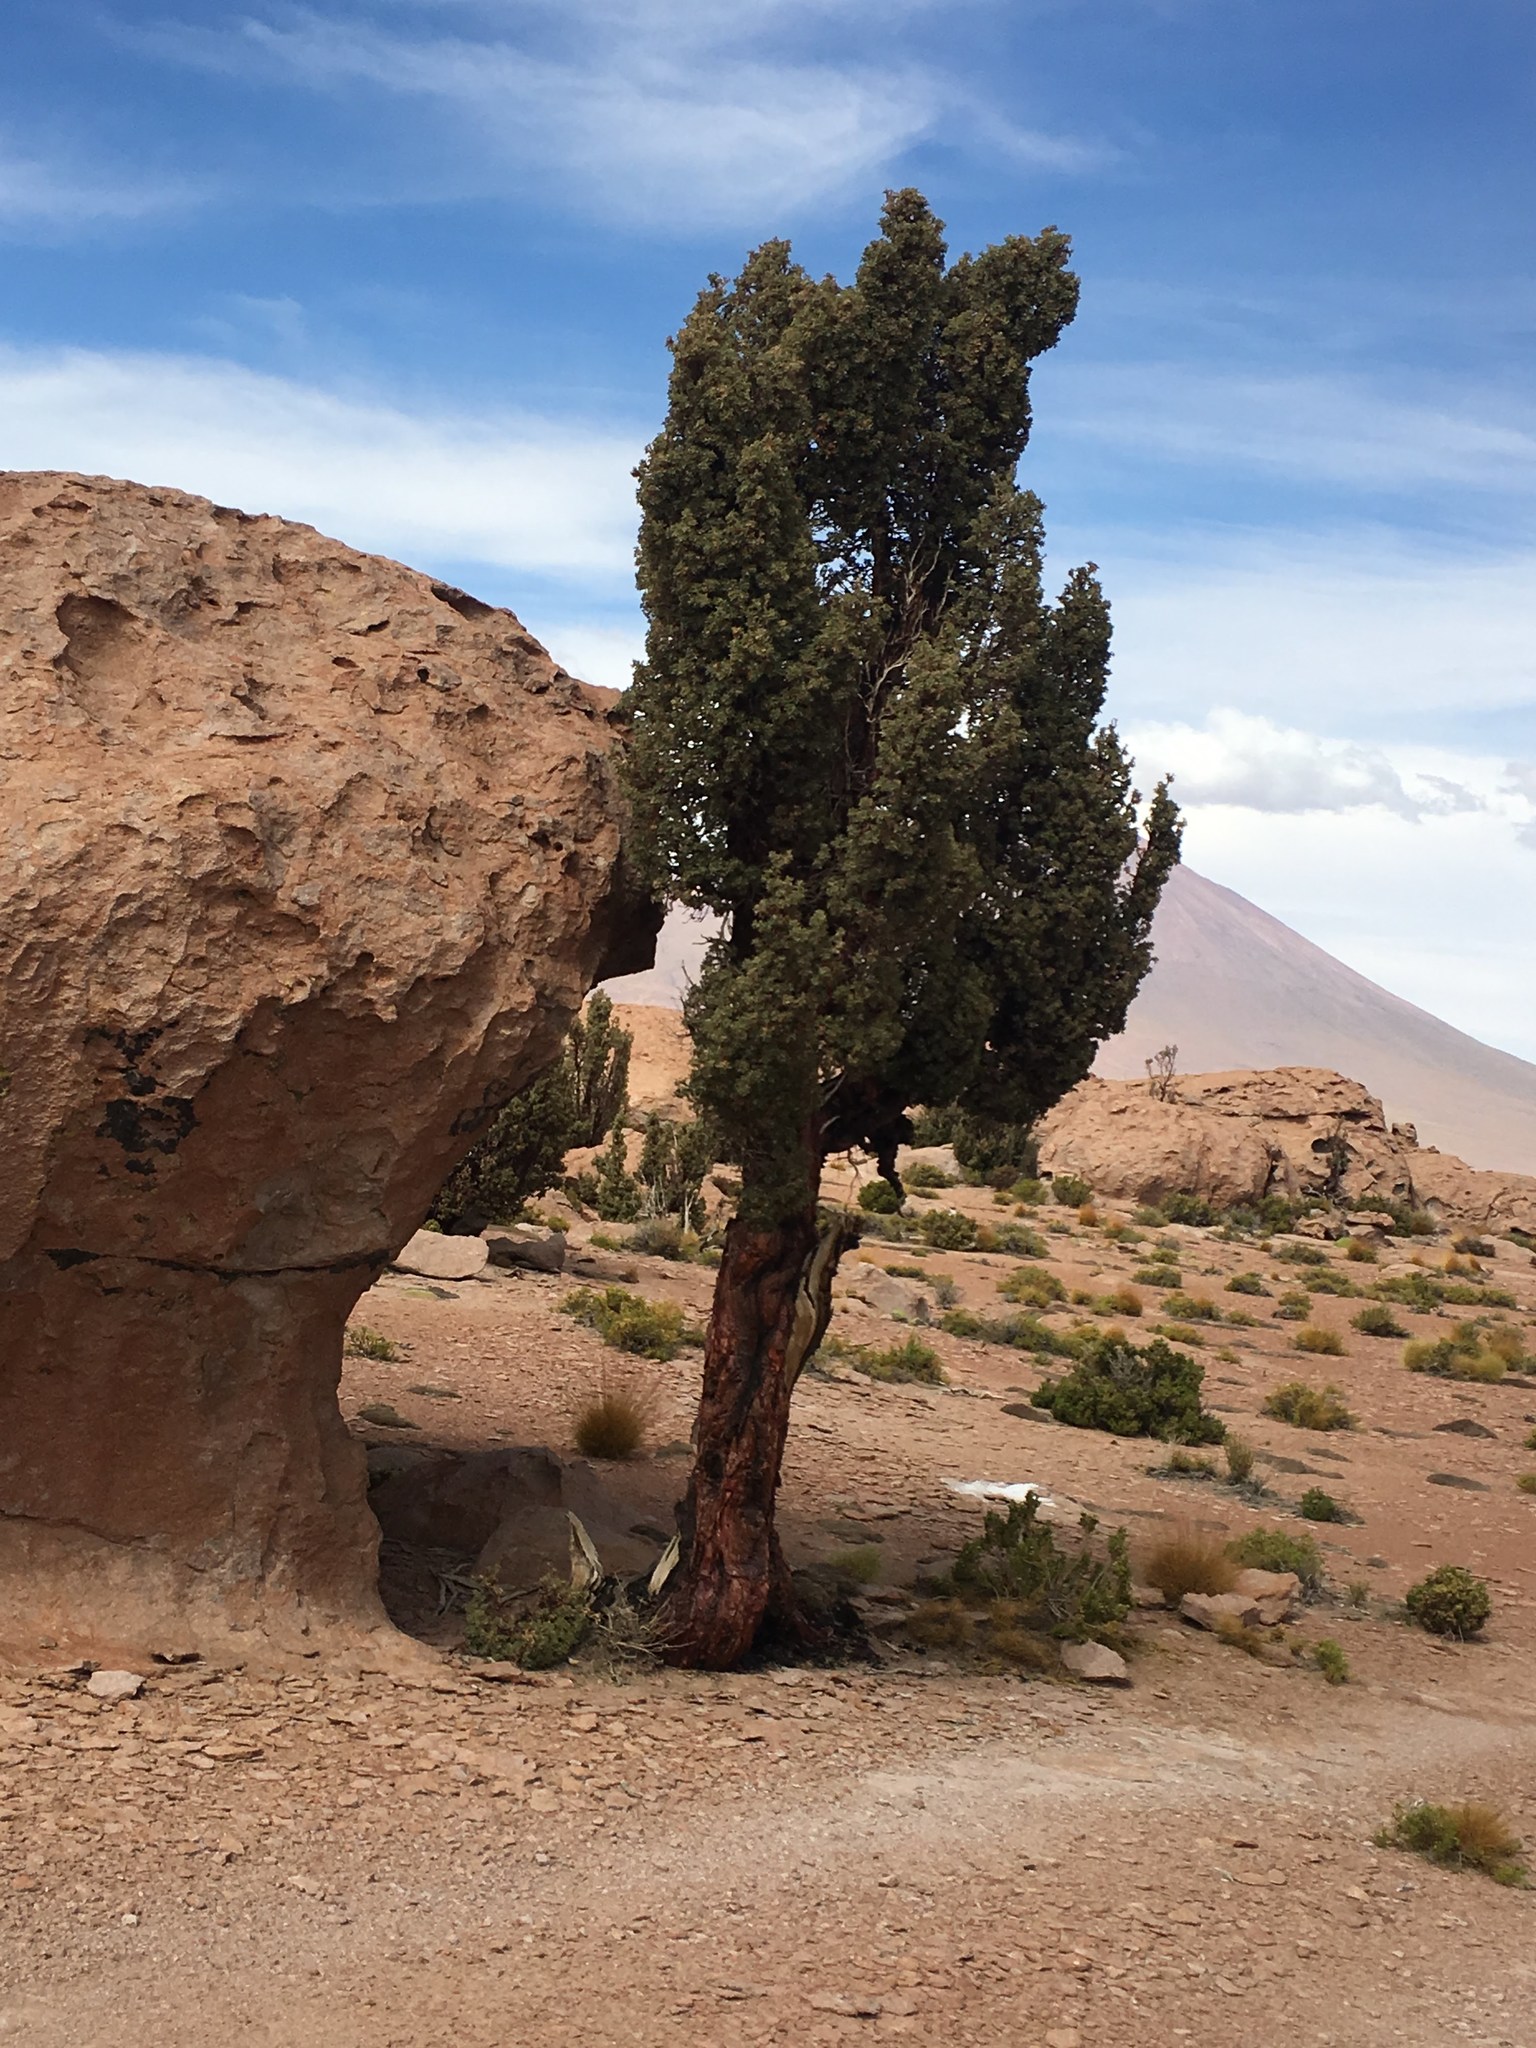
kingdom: Plantae
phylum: Tracheophyta
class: Magnoliopsida
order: Rosales
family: Rosaceae
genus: Polylepis
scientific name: Polylepis tarapacana
